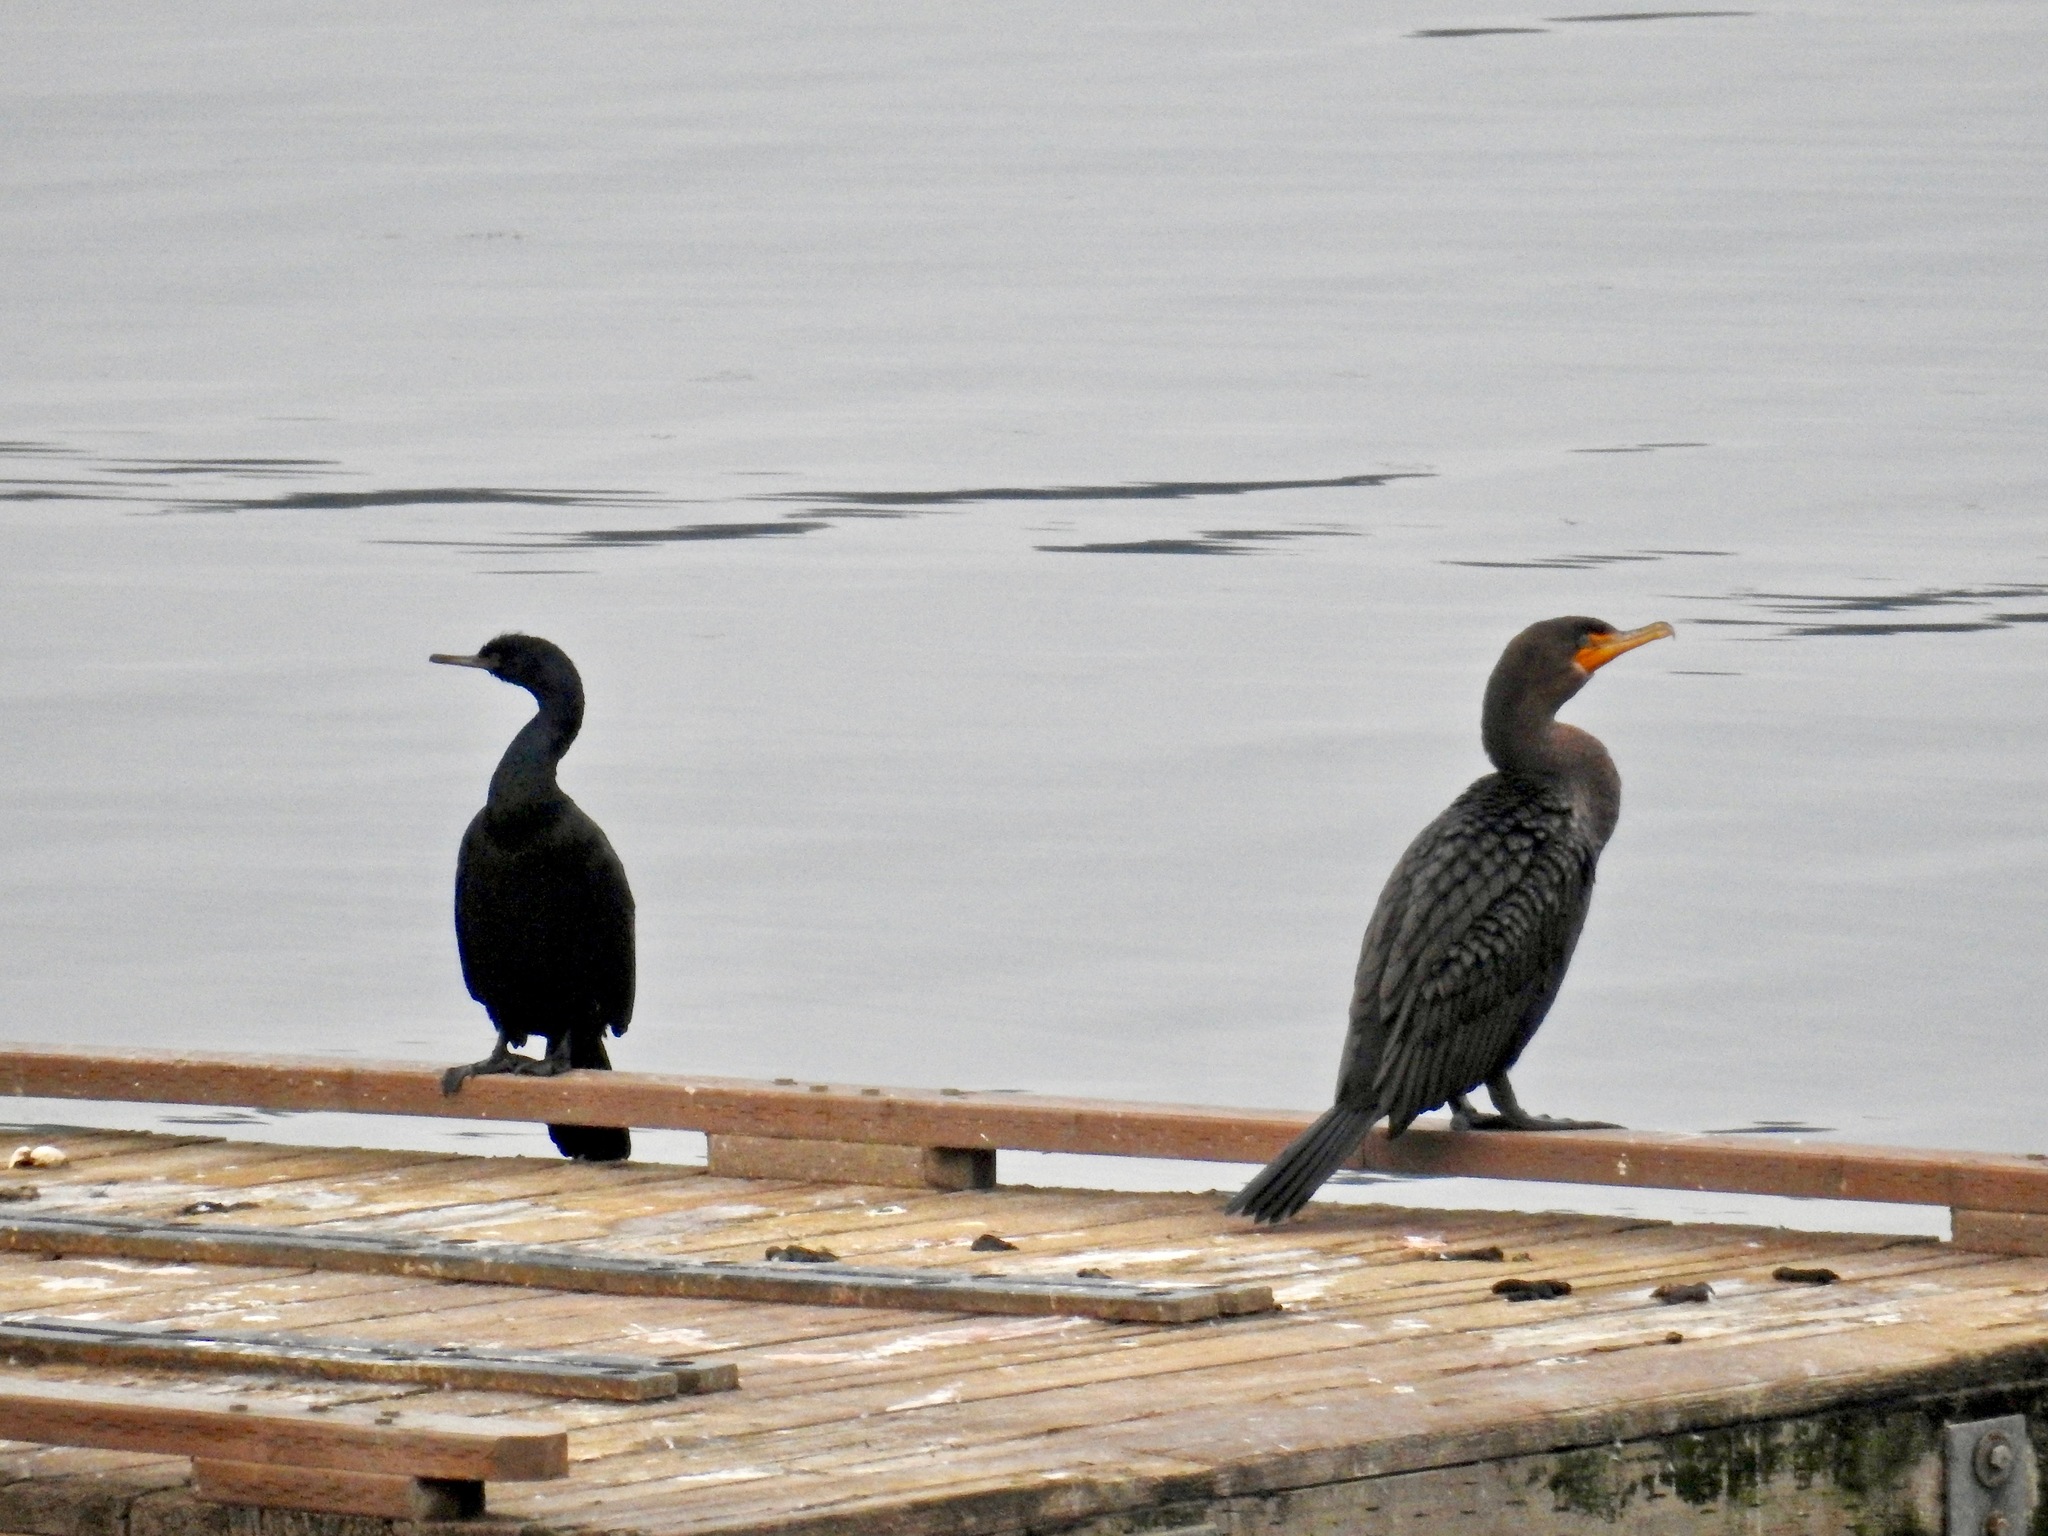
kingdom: Animalia
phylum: Chordata
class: Aves
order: Suliformes
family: Phalacrocoracidae
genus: Phalacrocorax
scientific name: Phalacrocorax pelagicus
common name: Pelagic cormorant
